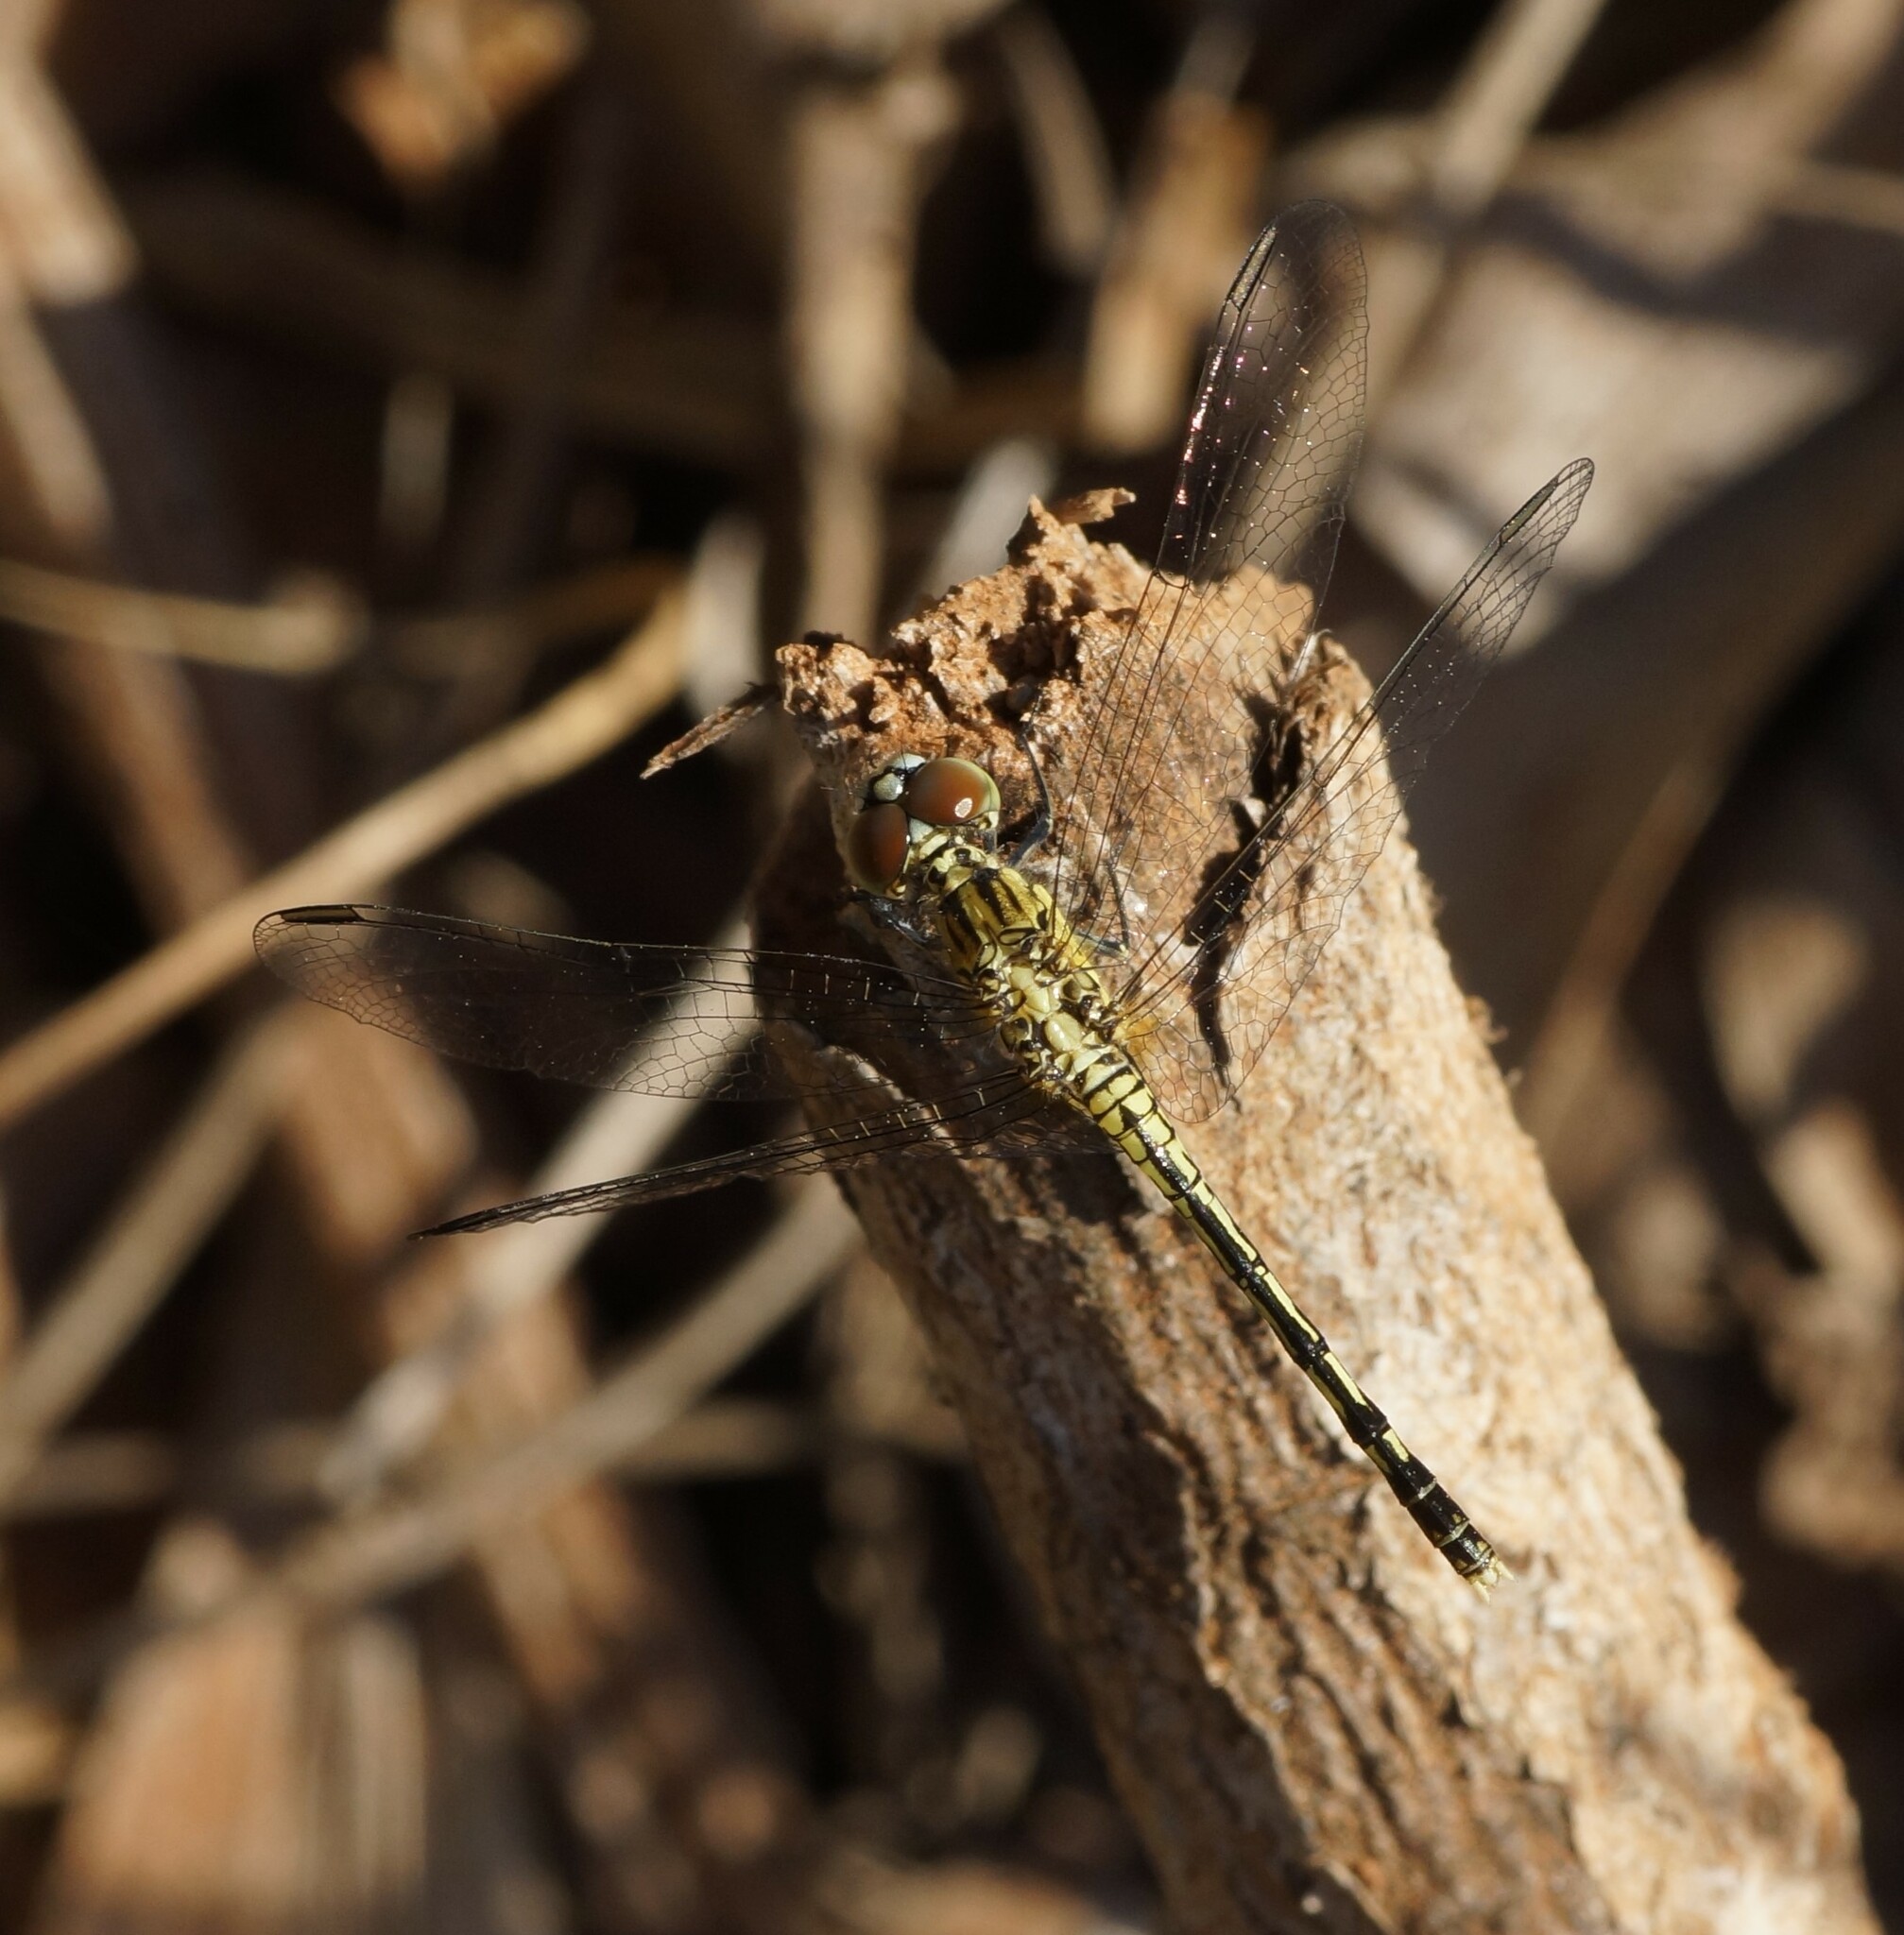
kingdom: Animalia
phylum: Arthropoda
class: Insecta
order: Odonata
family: Libellulidae
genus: Diplacodes
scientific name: Diplacodes trivialis
